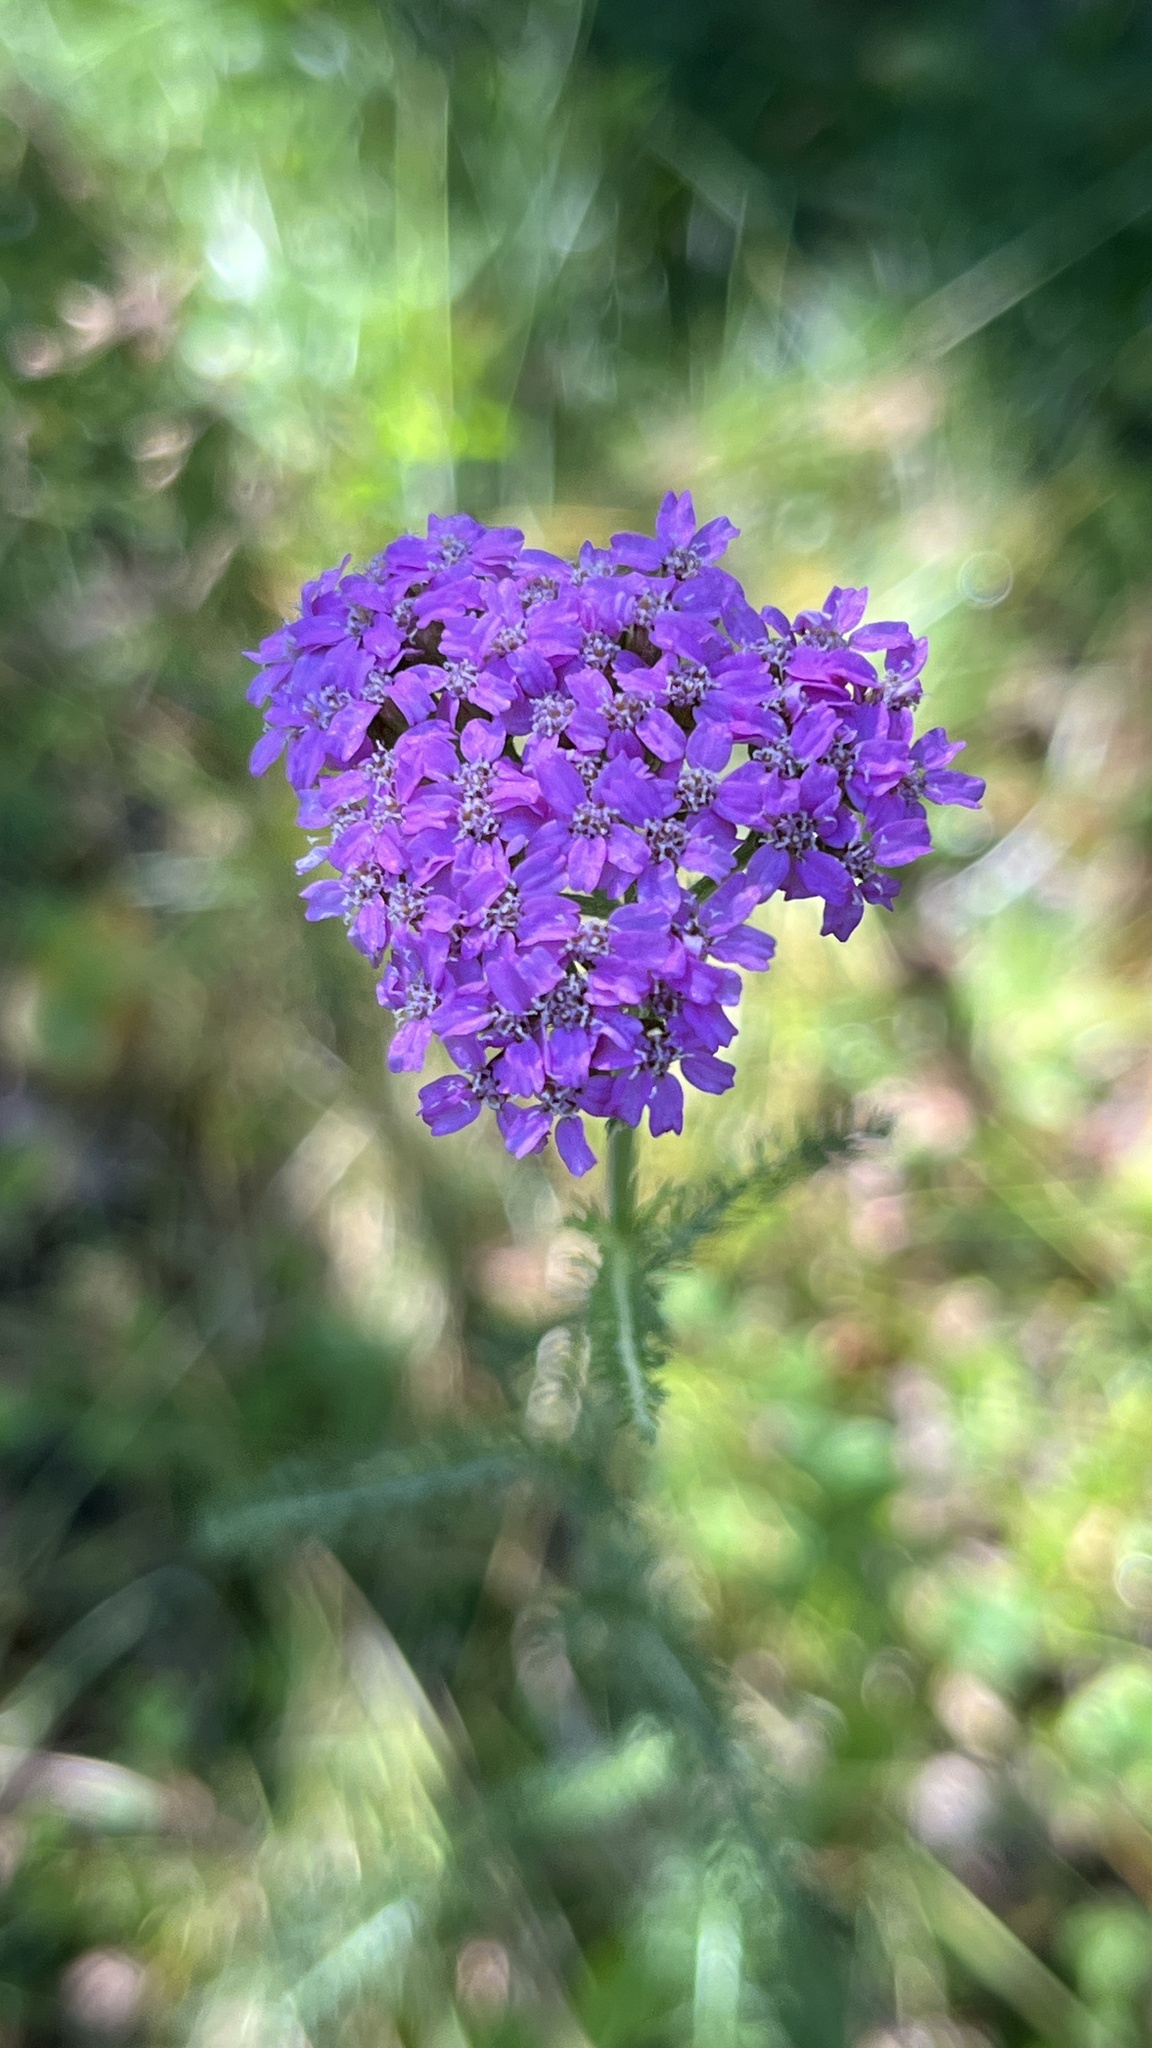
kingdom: Plantae
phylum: Tracheophyta
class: Magnoliopsida
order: Asterales
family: Asteraceae
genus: Achillea
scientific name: Achillea asiatica
